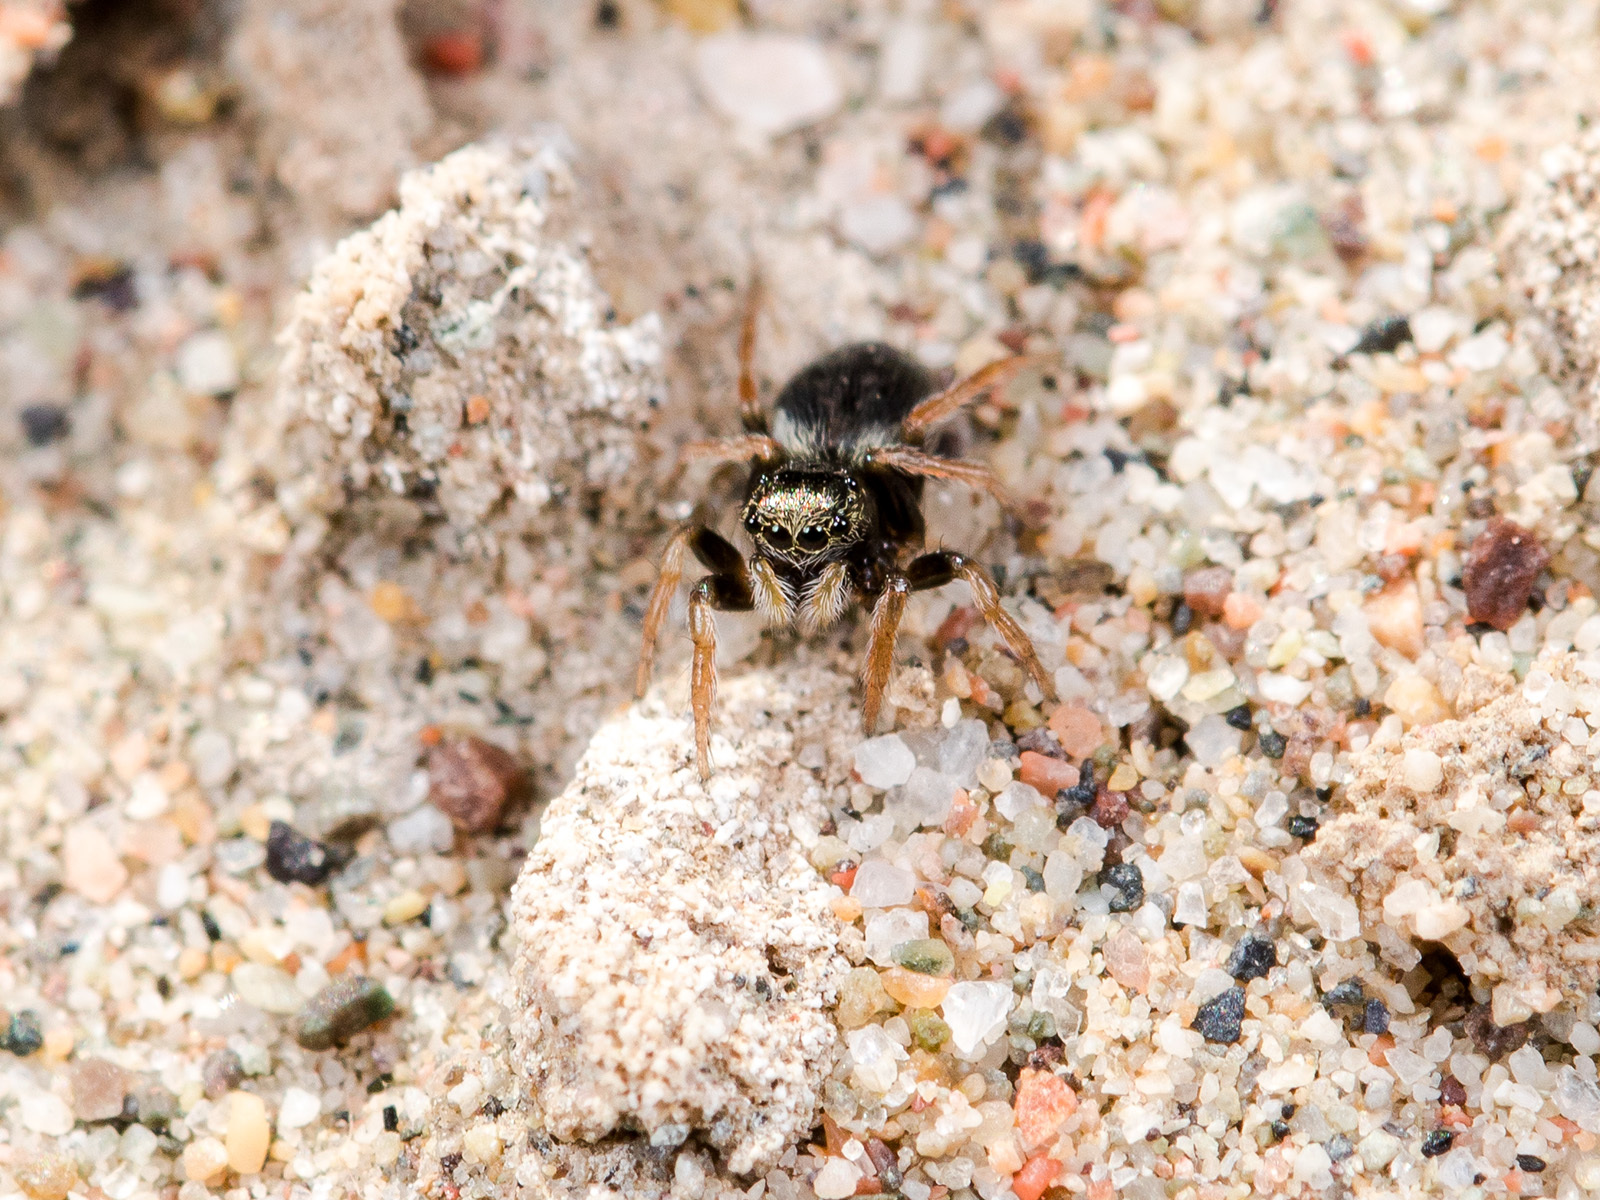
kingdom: Animalia
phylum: Arthropoda
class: Arachnida
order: Araneae
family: Salticidae
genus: Chalcoscirtus
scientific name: Chalcoscirtus karakurt
